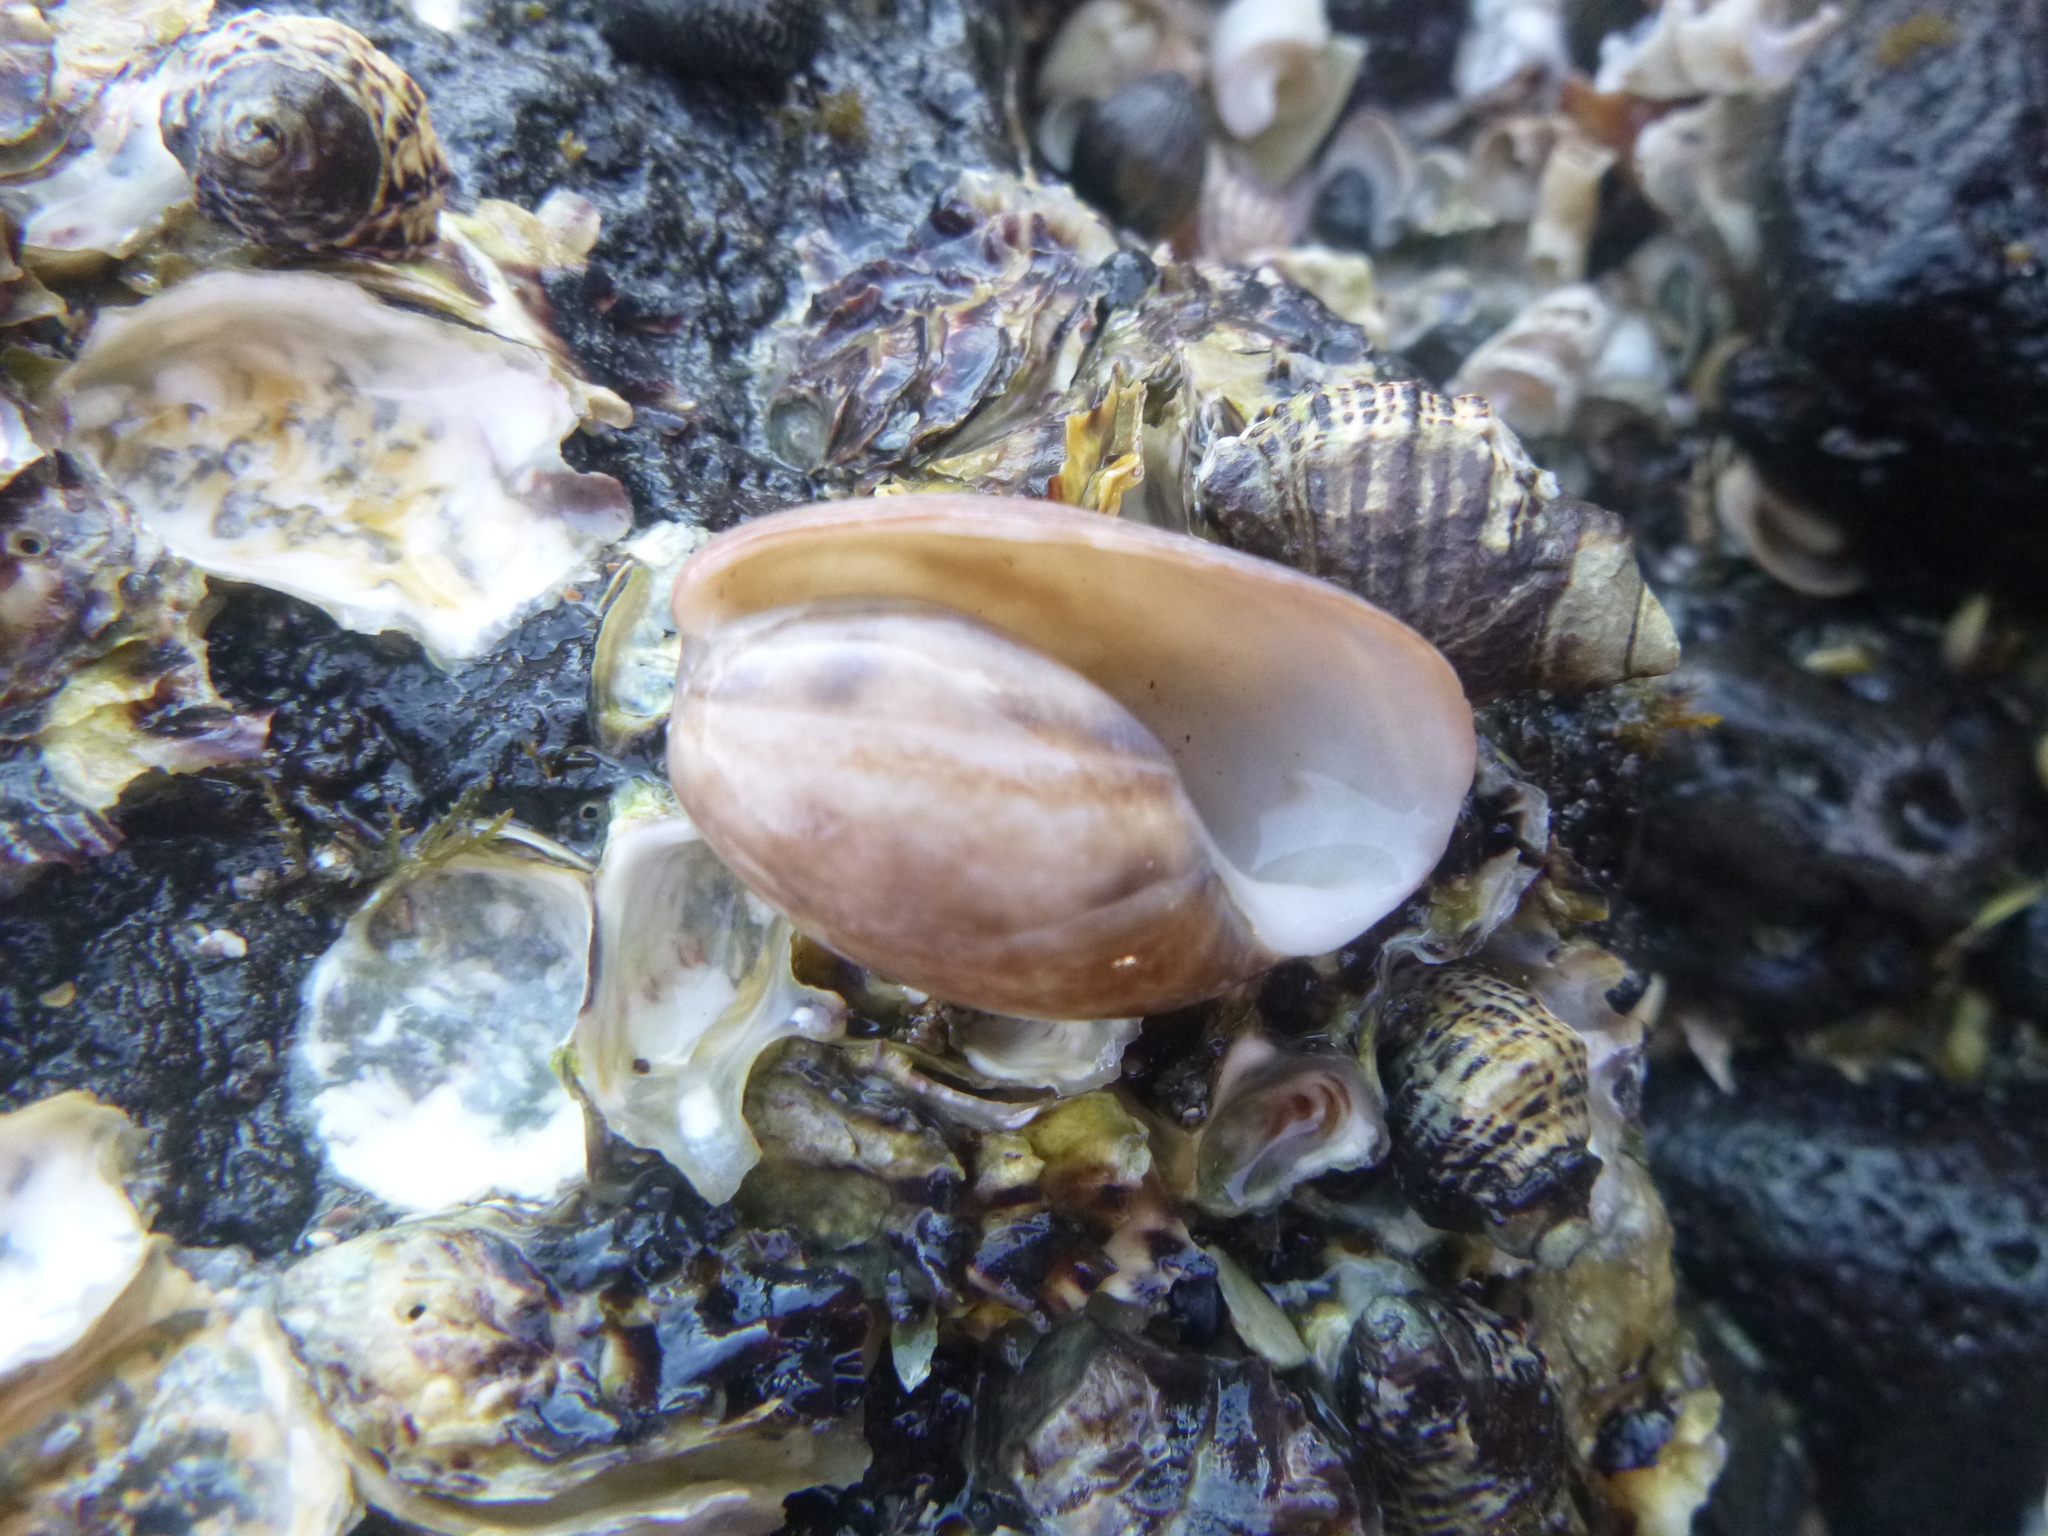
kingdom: Animalia
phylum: Mollusca
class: Gastropoda
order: Cephalaspidea
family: Bullidae
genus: Bulla
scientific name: Bulla quoyii
